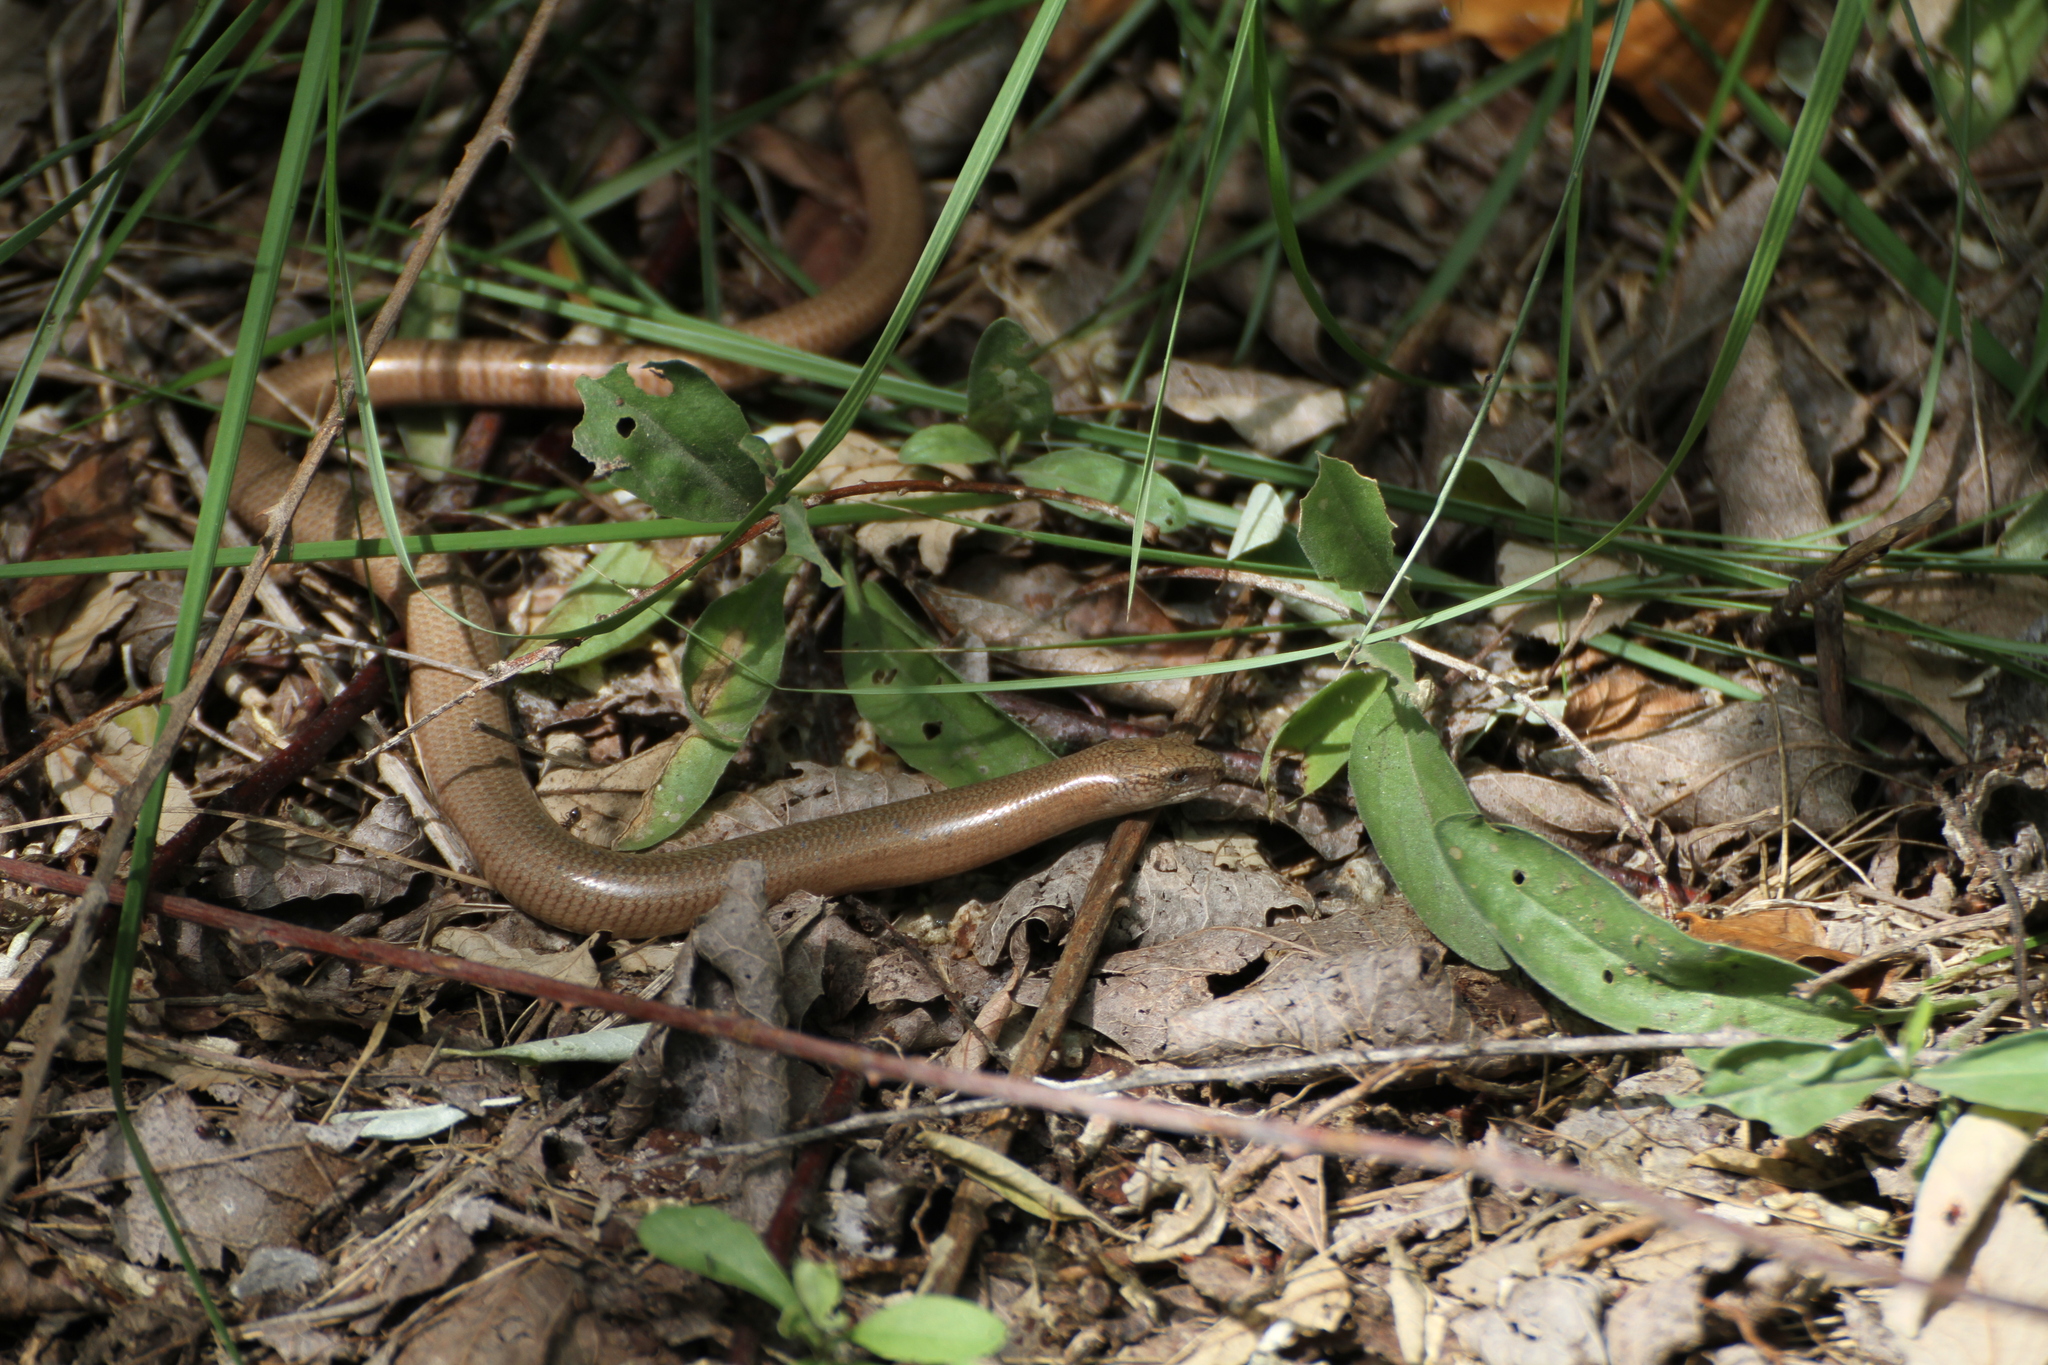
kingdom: Animalia
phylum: Chordata
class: Squamata
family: Anguidae
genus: Anguis
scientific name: Anguis fragilis
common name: Slow worm
